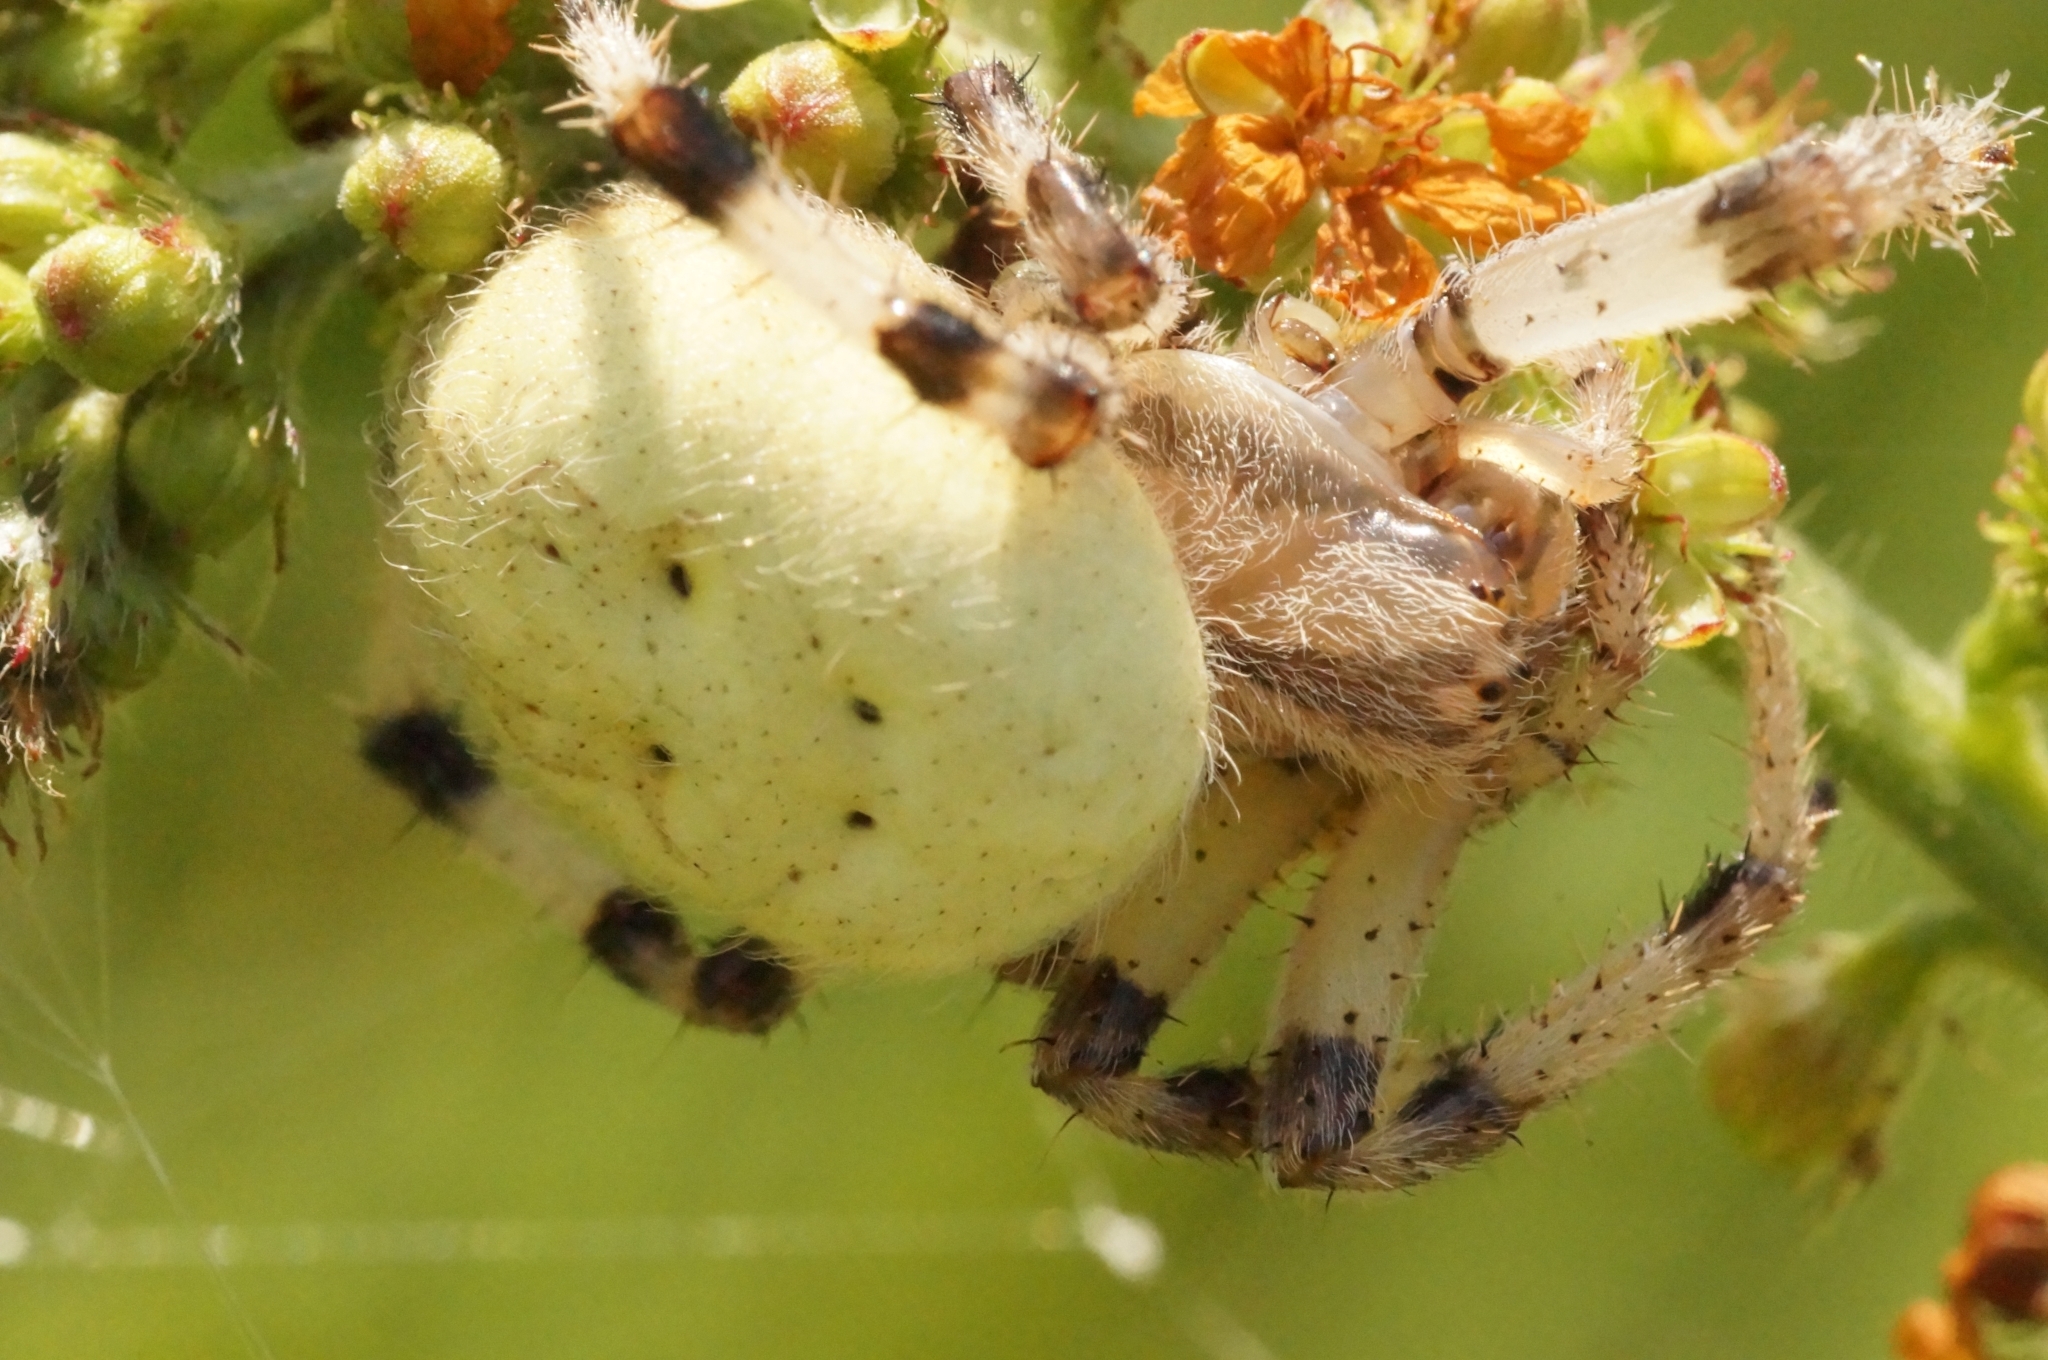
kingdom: Animalia
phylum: Arthropoda
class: Arachnida
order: Araneae
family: Araneidae
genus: Araneus
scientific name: Araneus quadratus
